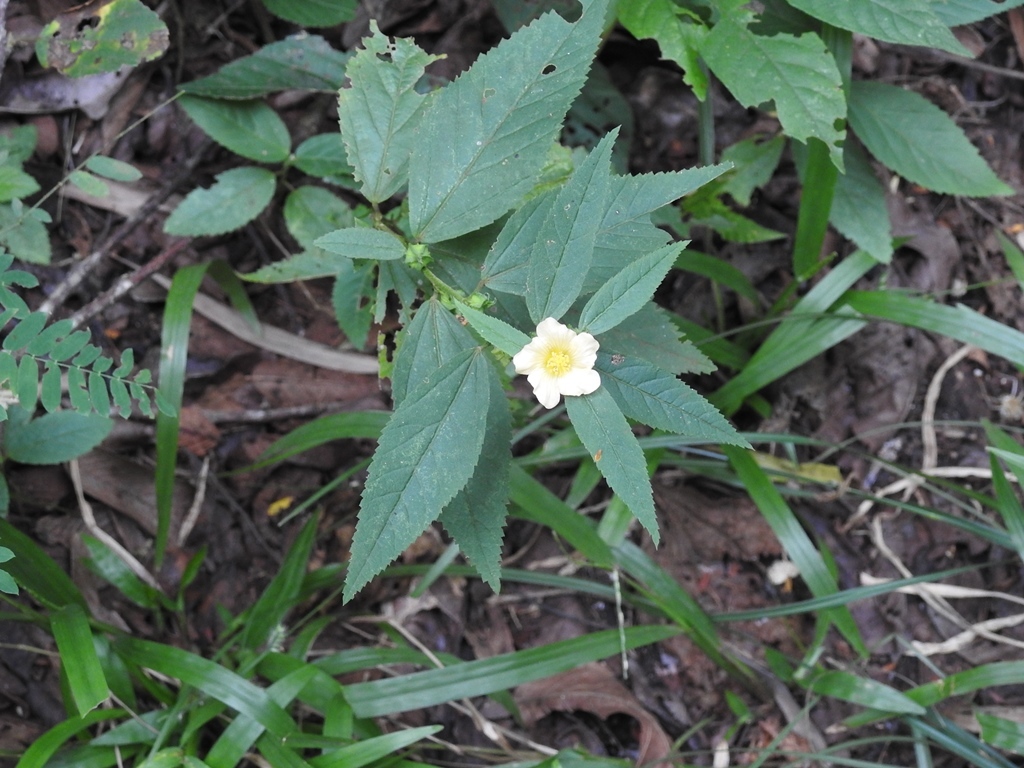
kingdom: Plantae
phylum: Tracheophyta
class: Magnoliopsida
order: Malvales
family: Malvaceae
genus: Sida
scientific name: Sida acuta
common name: Common wireweed
